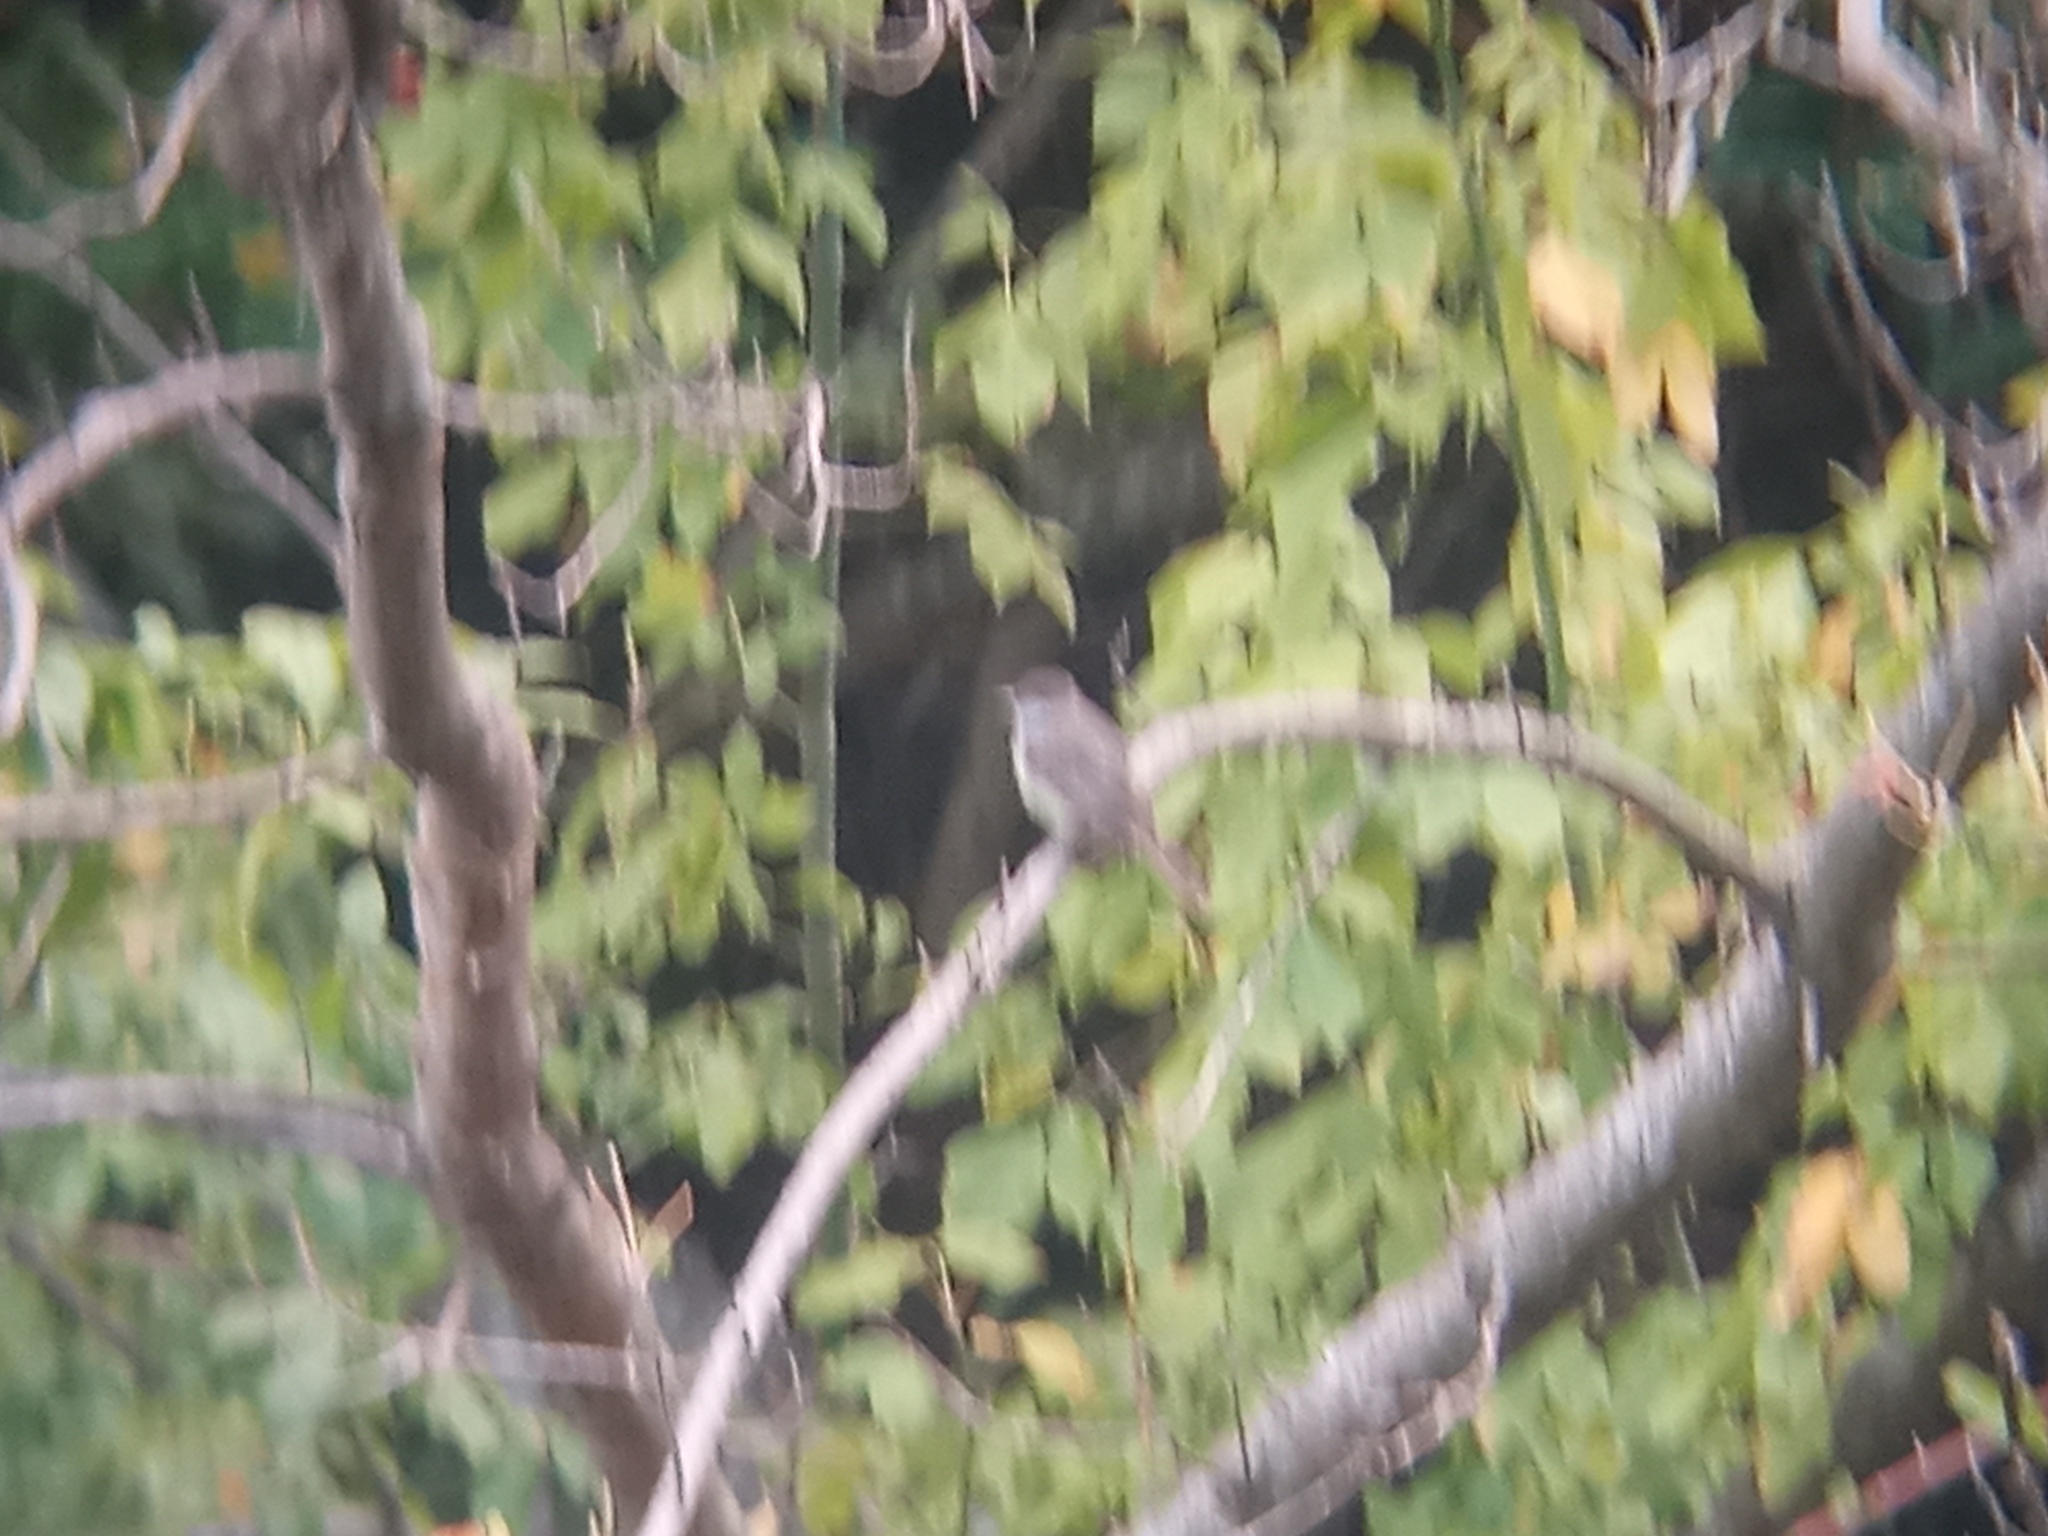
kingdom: Animalia
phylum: Chordata
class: Aves
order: Passeriformes
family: Tyrannidae
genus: Myiarchus
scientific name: Myiarchus swainsoni
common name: Swainson's flycatcher
